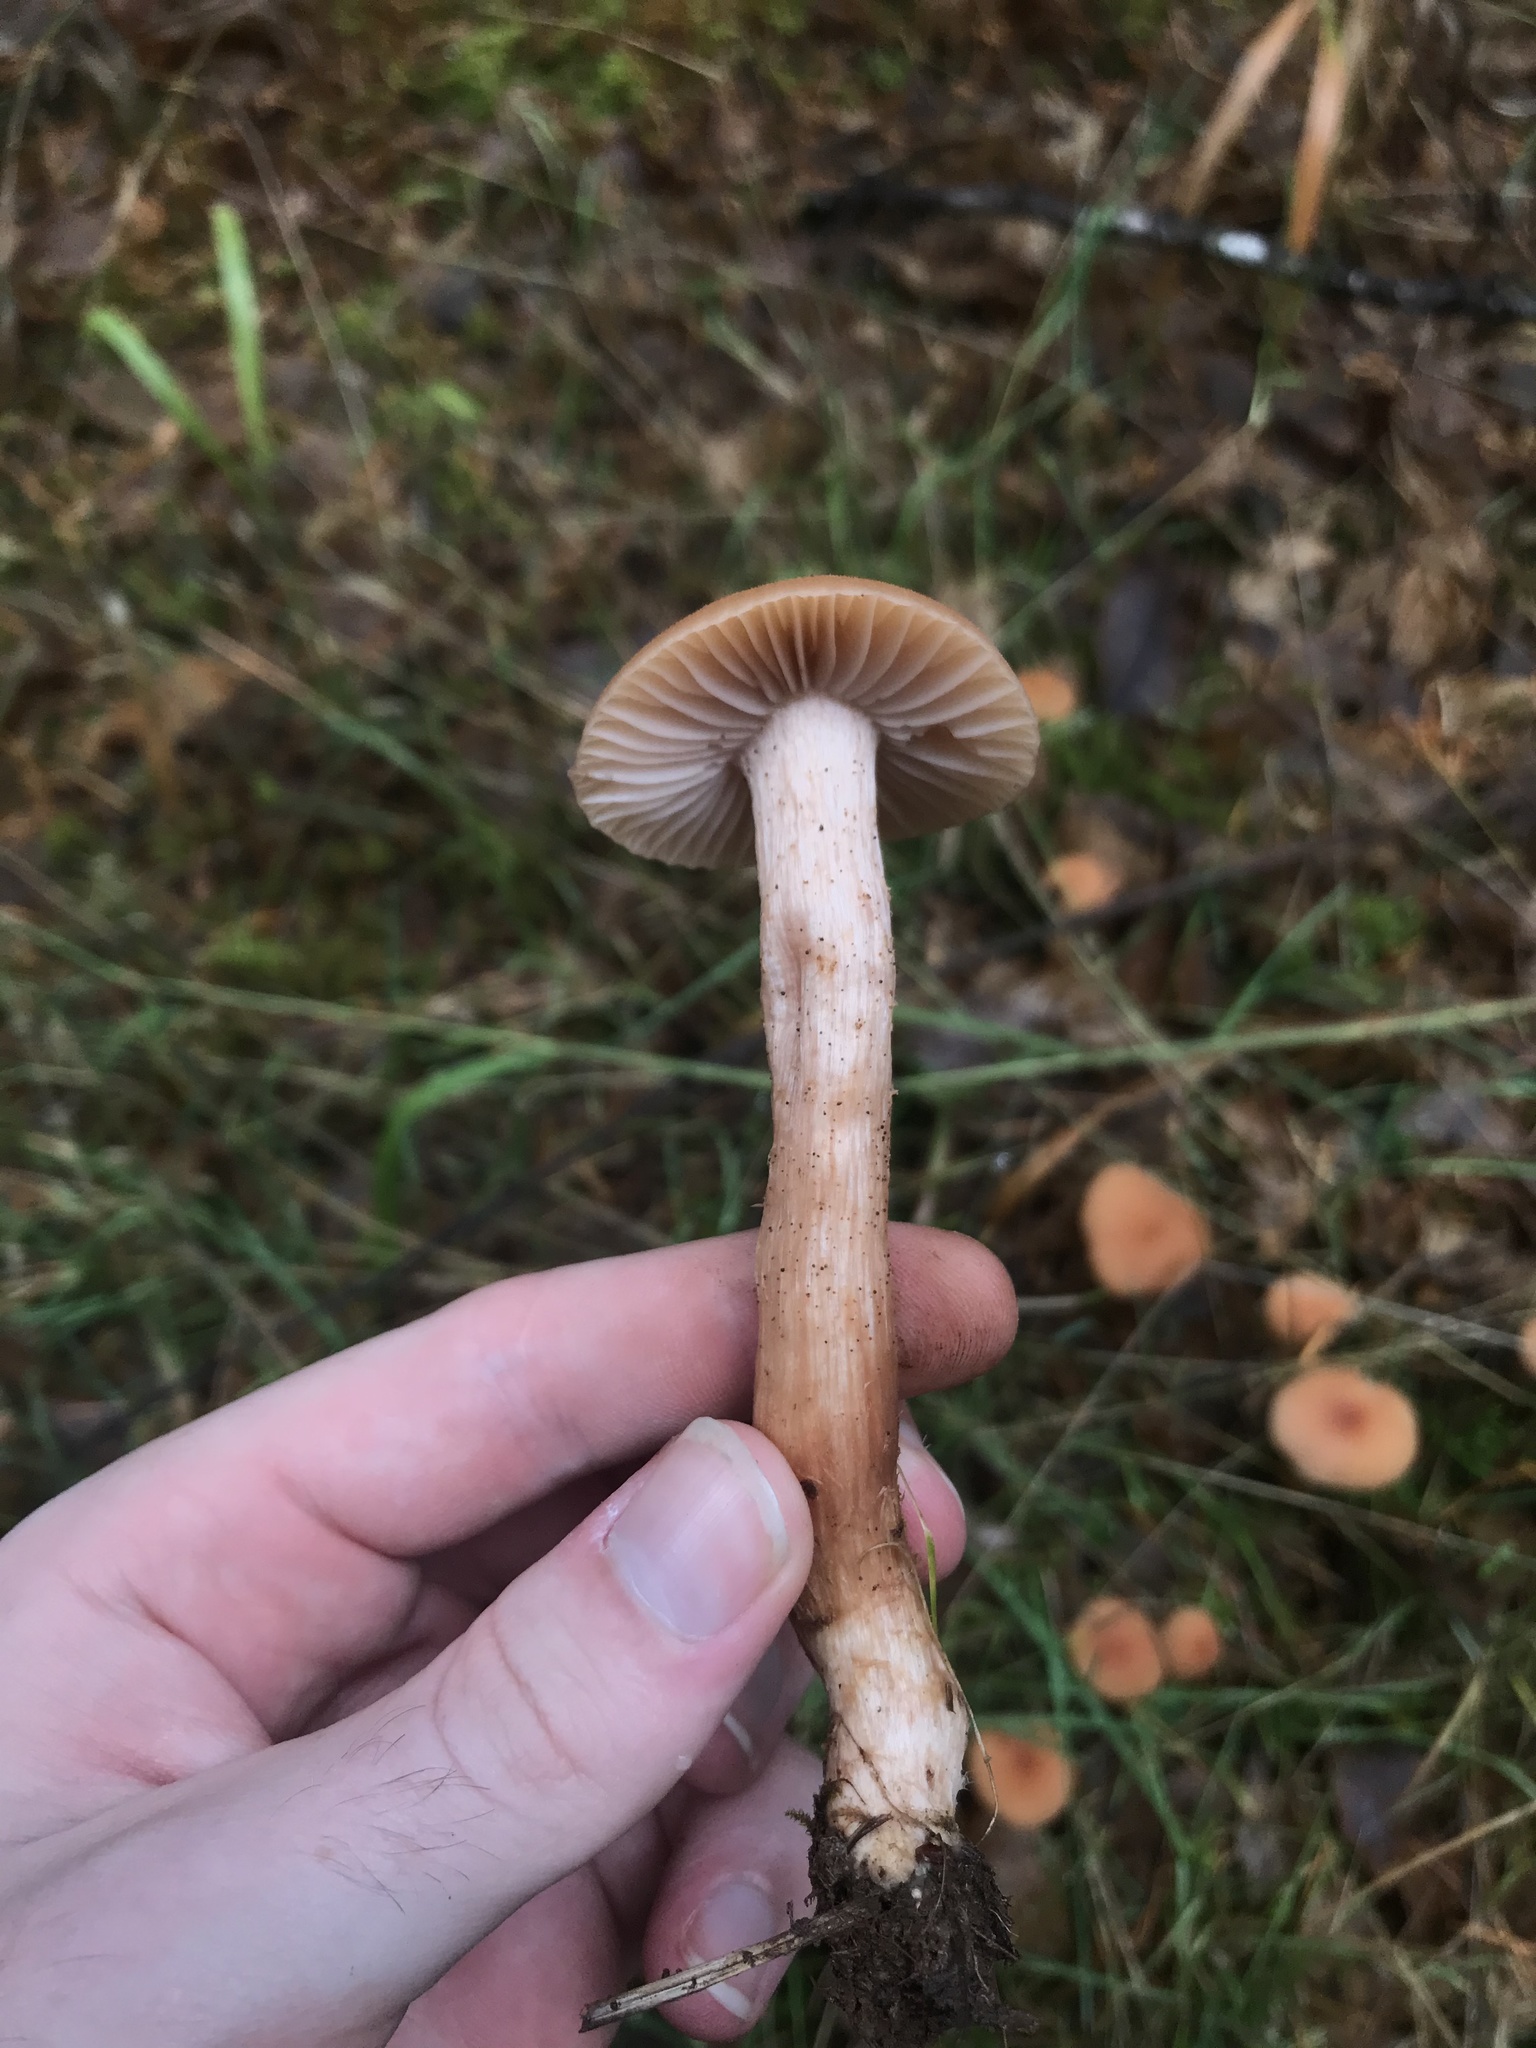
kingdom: Fungi
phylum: Basidiomycota
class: Agaricomycetes
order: Agaricales
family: Hydnangiaceae
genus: Laccaria
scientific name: Laccaria laccata
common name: Deceiver
